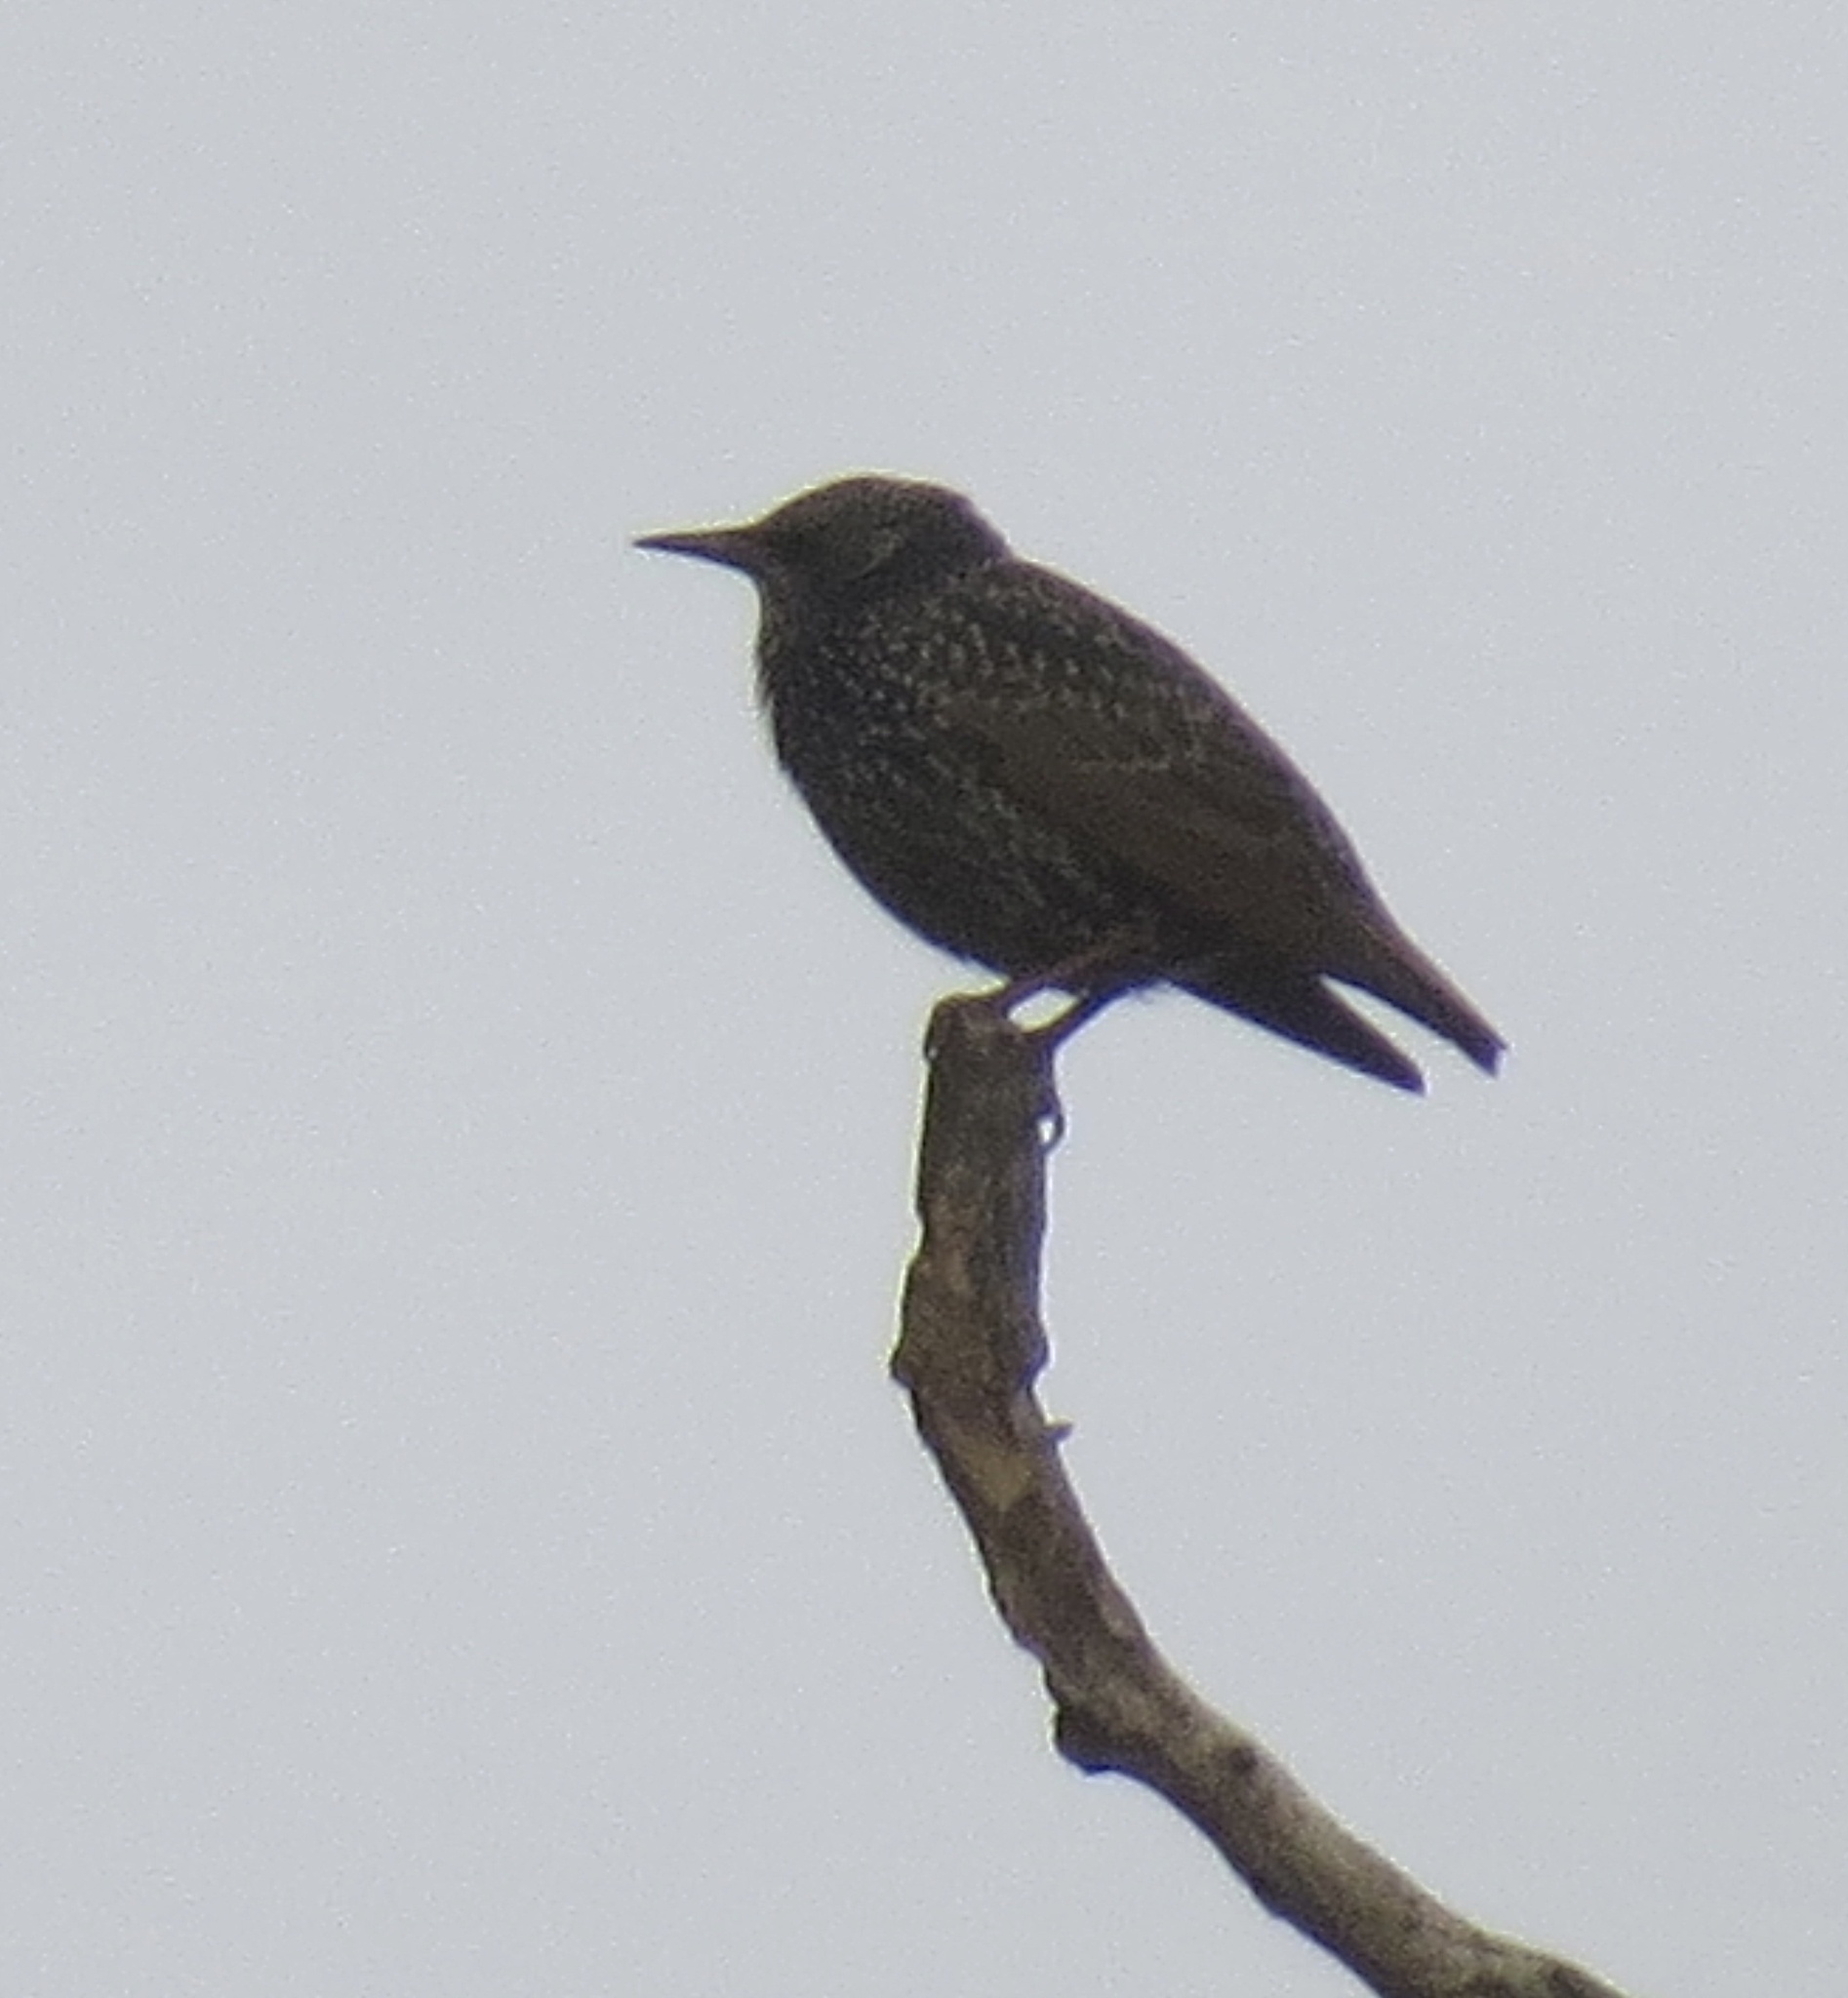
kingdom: Animalia
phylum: Chordata
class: Aves
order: Passeriformes
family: Sturnidae
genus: Sturnus
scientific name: Sturnus vulgaris
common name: Common starling
